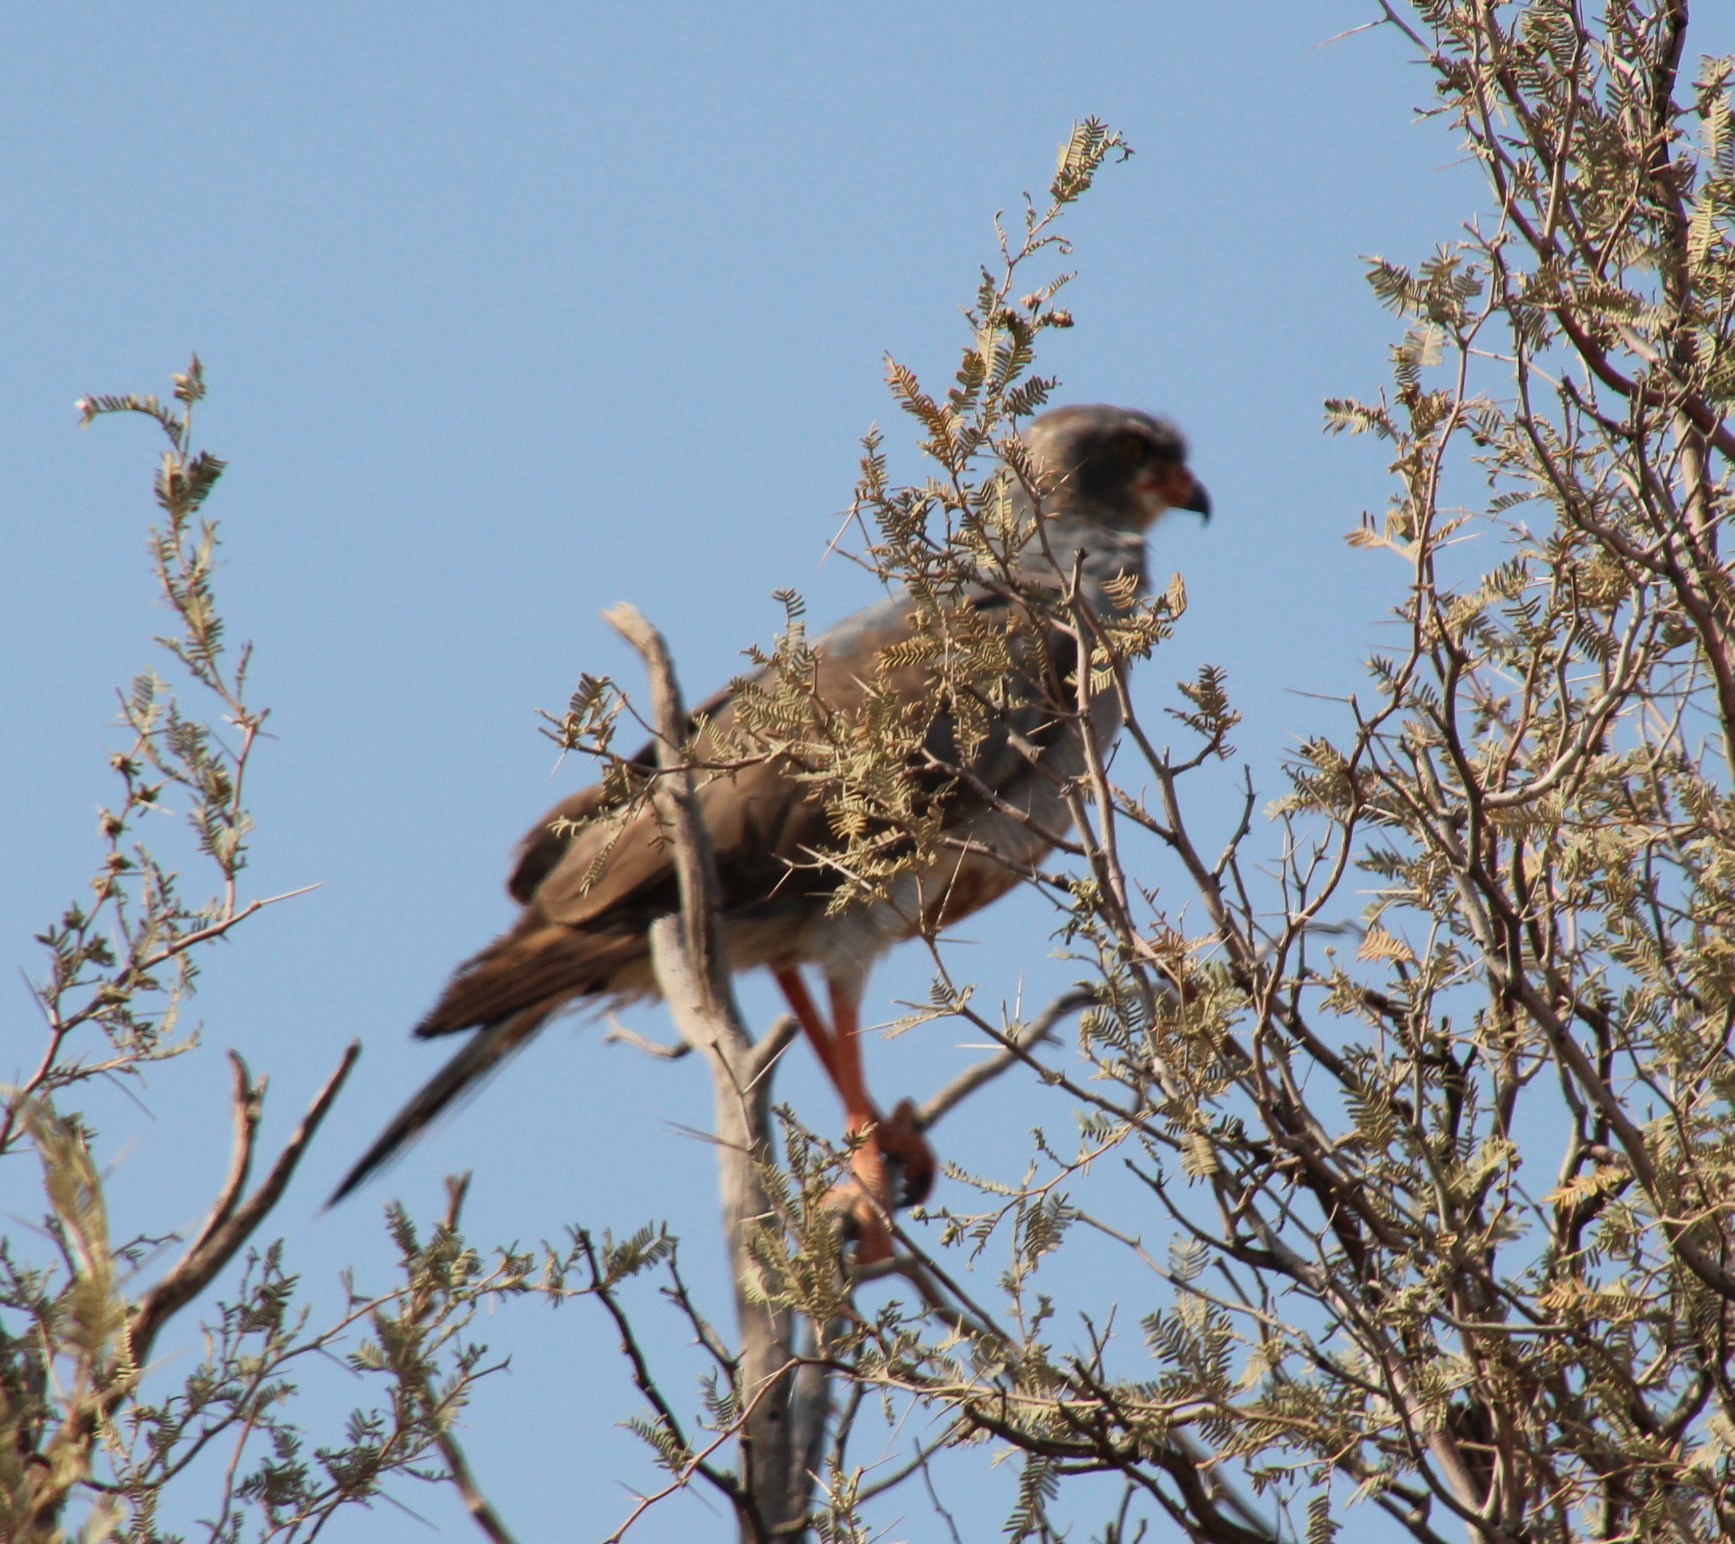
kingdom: Animalia
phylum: Chordata
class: Aves
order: Accipitriformes
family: Accipitridae
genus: Melierax
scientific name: Melierax canorus
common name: Pale chanting-goshawk
